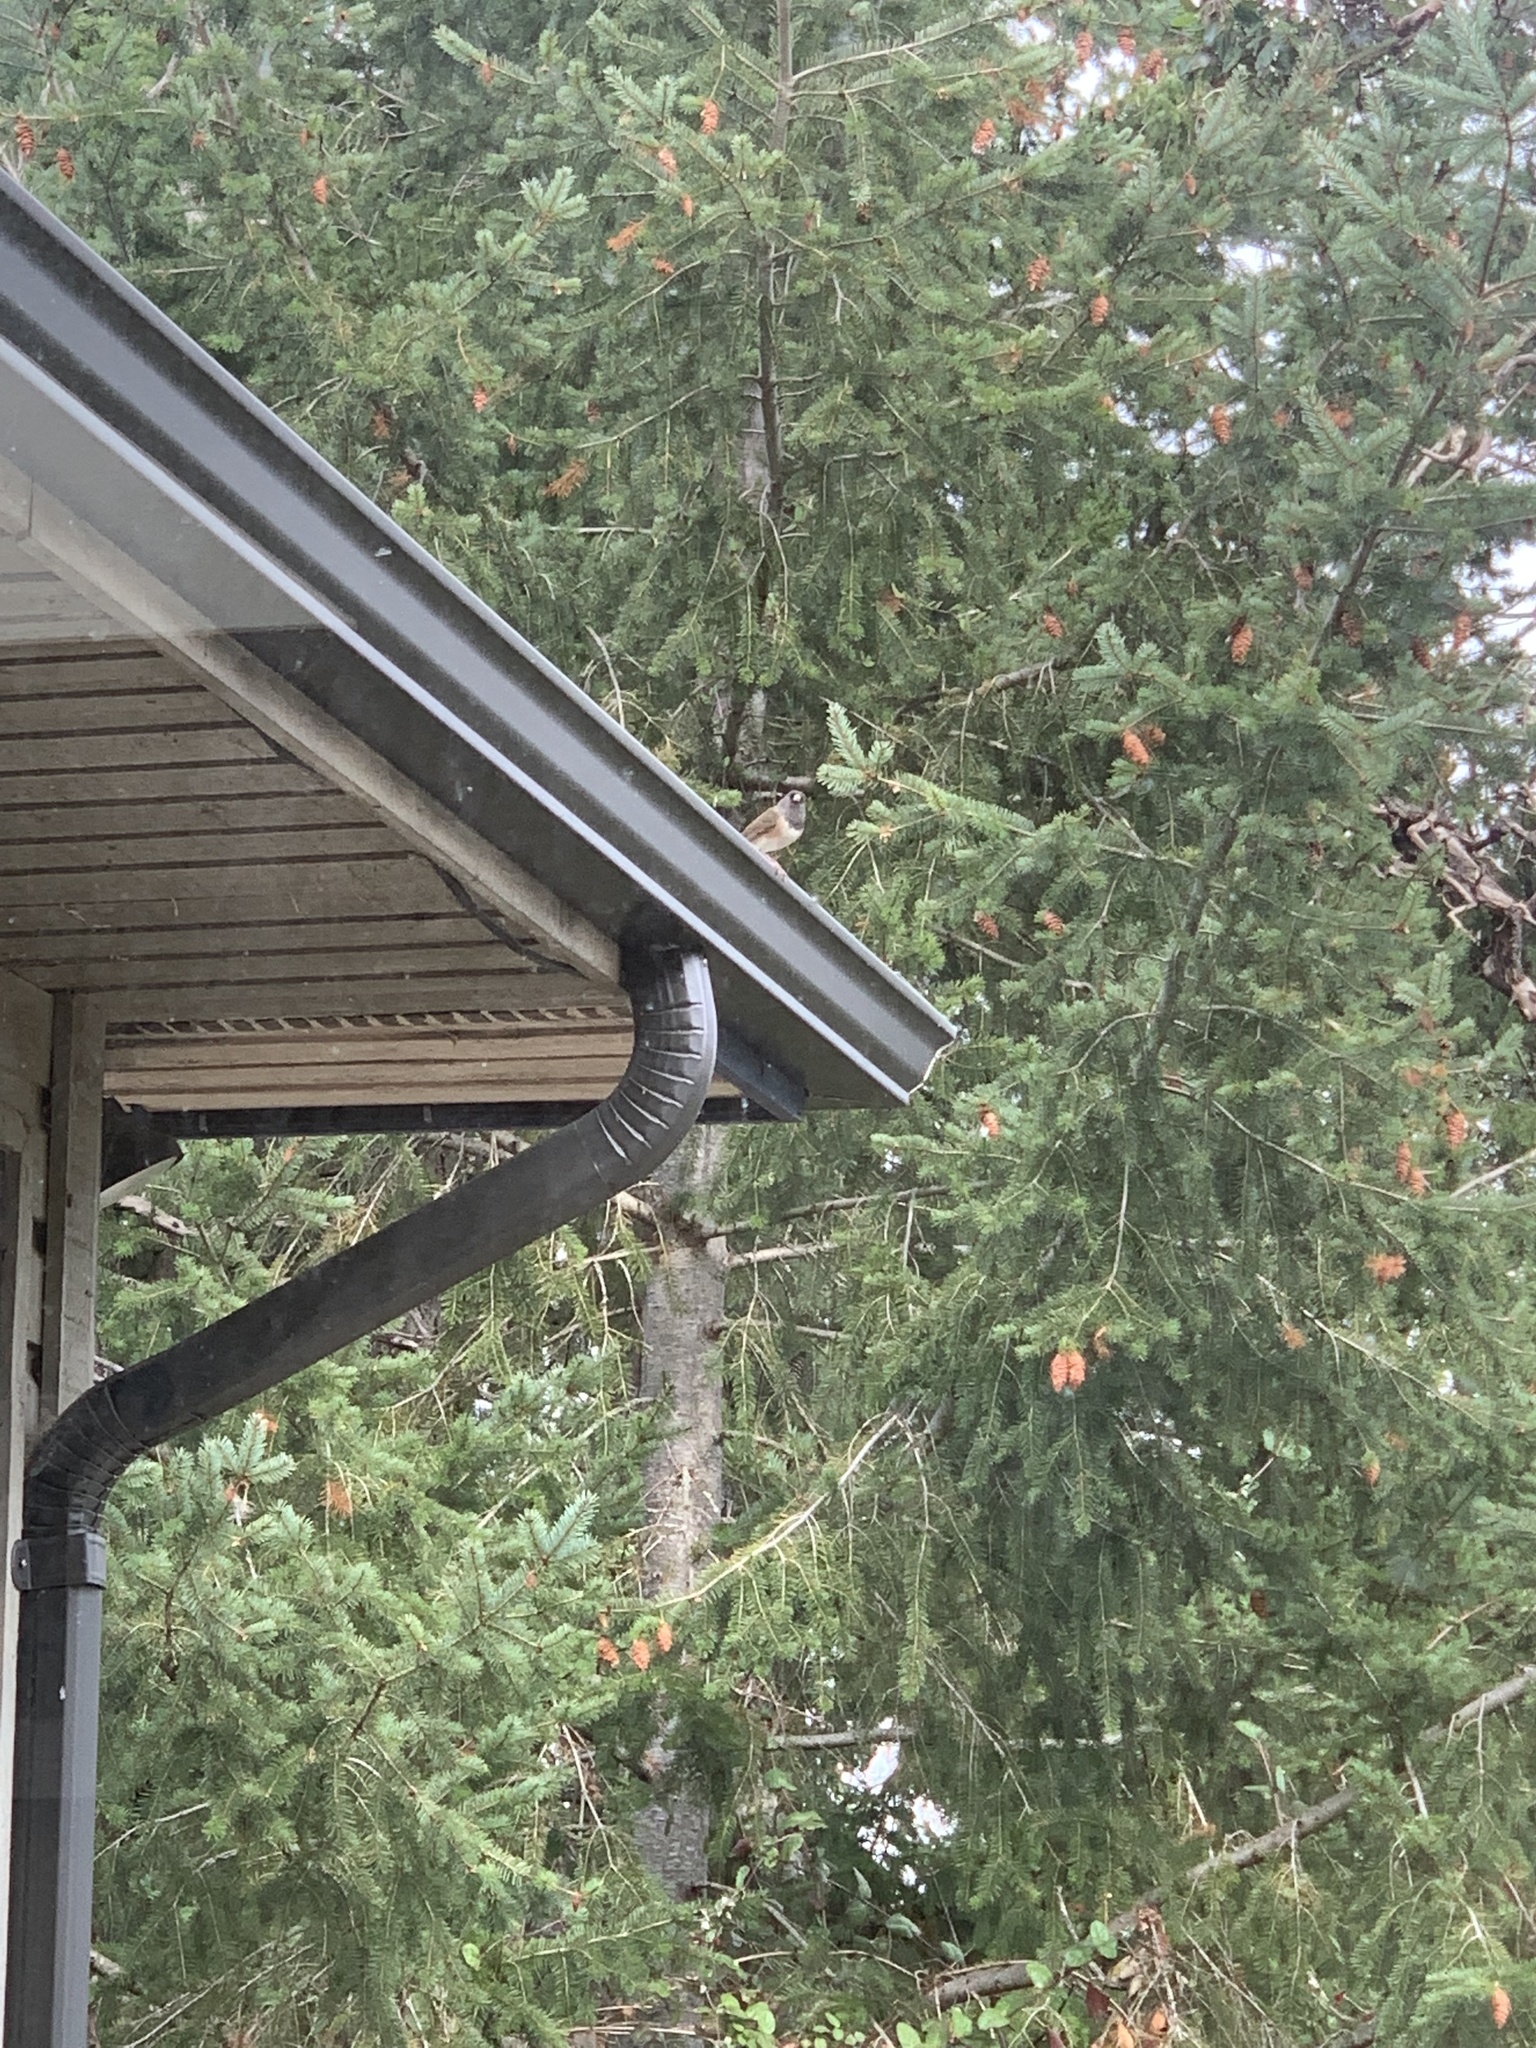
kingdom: Animalia
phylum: Chordata
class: Aves
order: Passeriformes
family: Passerellidae
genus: Junco
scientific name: Junco hyemalis
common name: Dark-eyed junco
